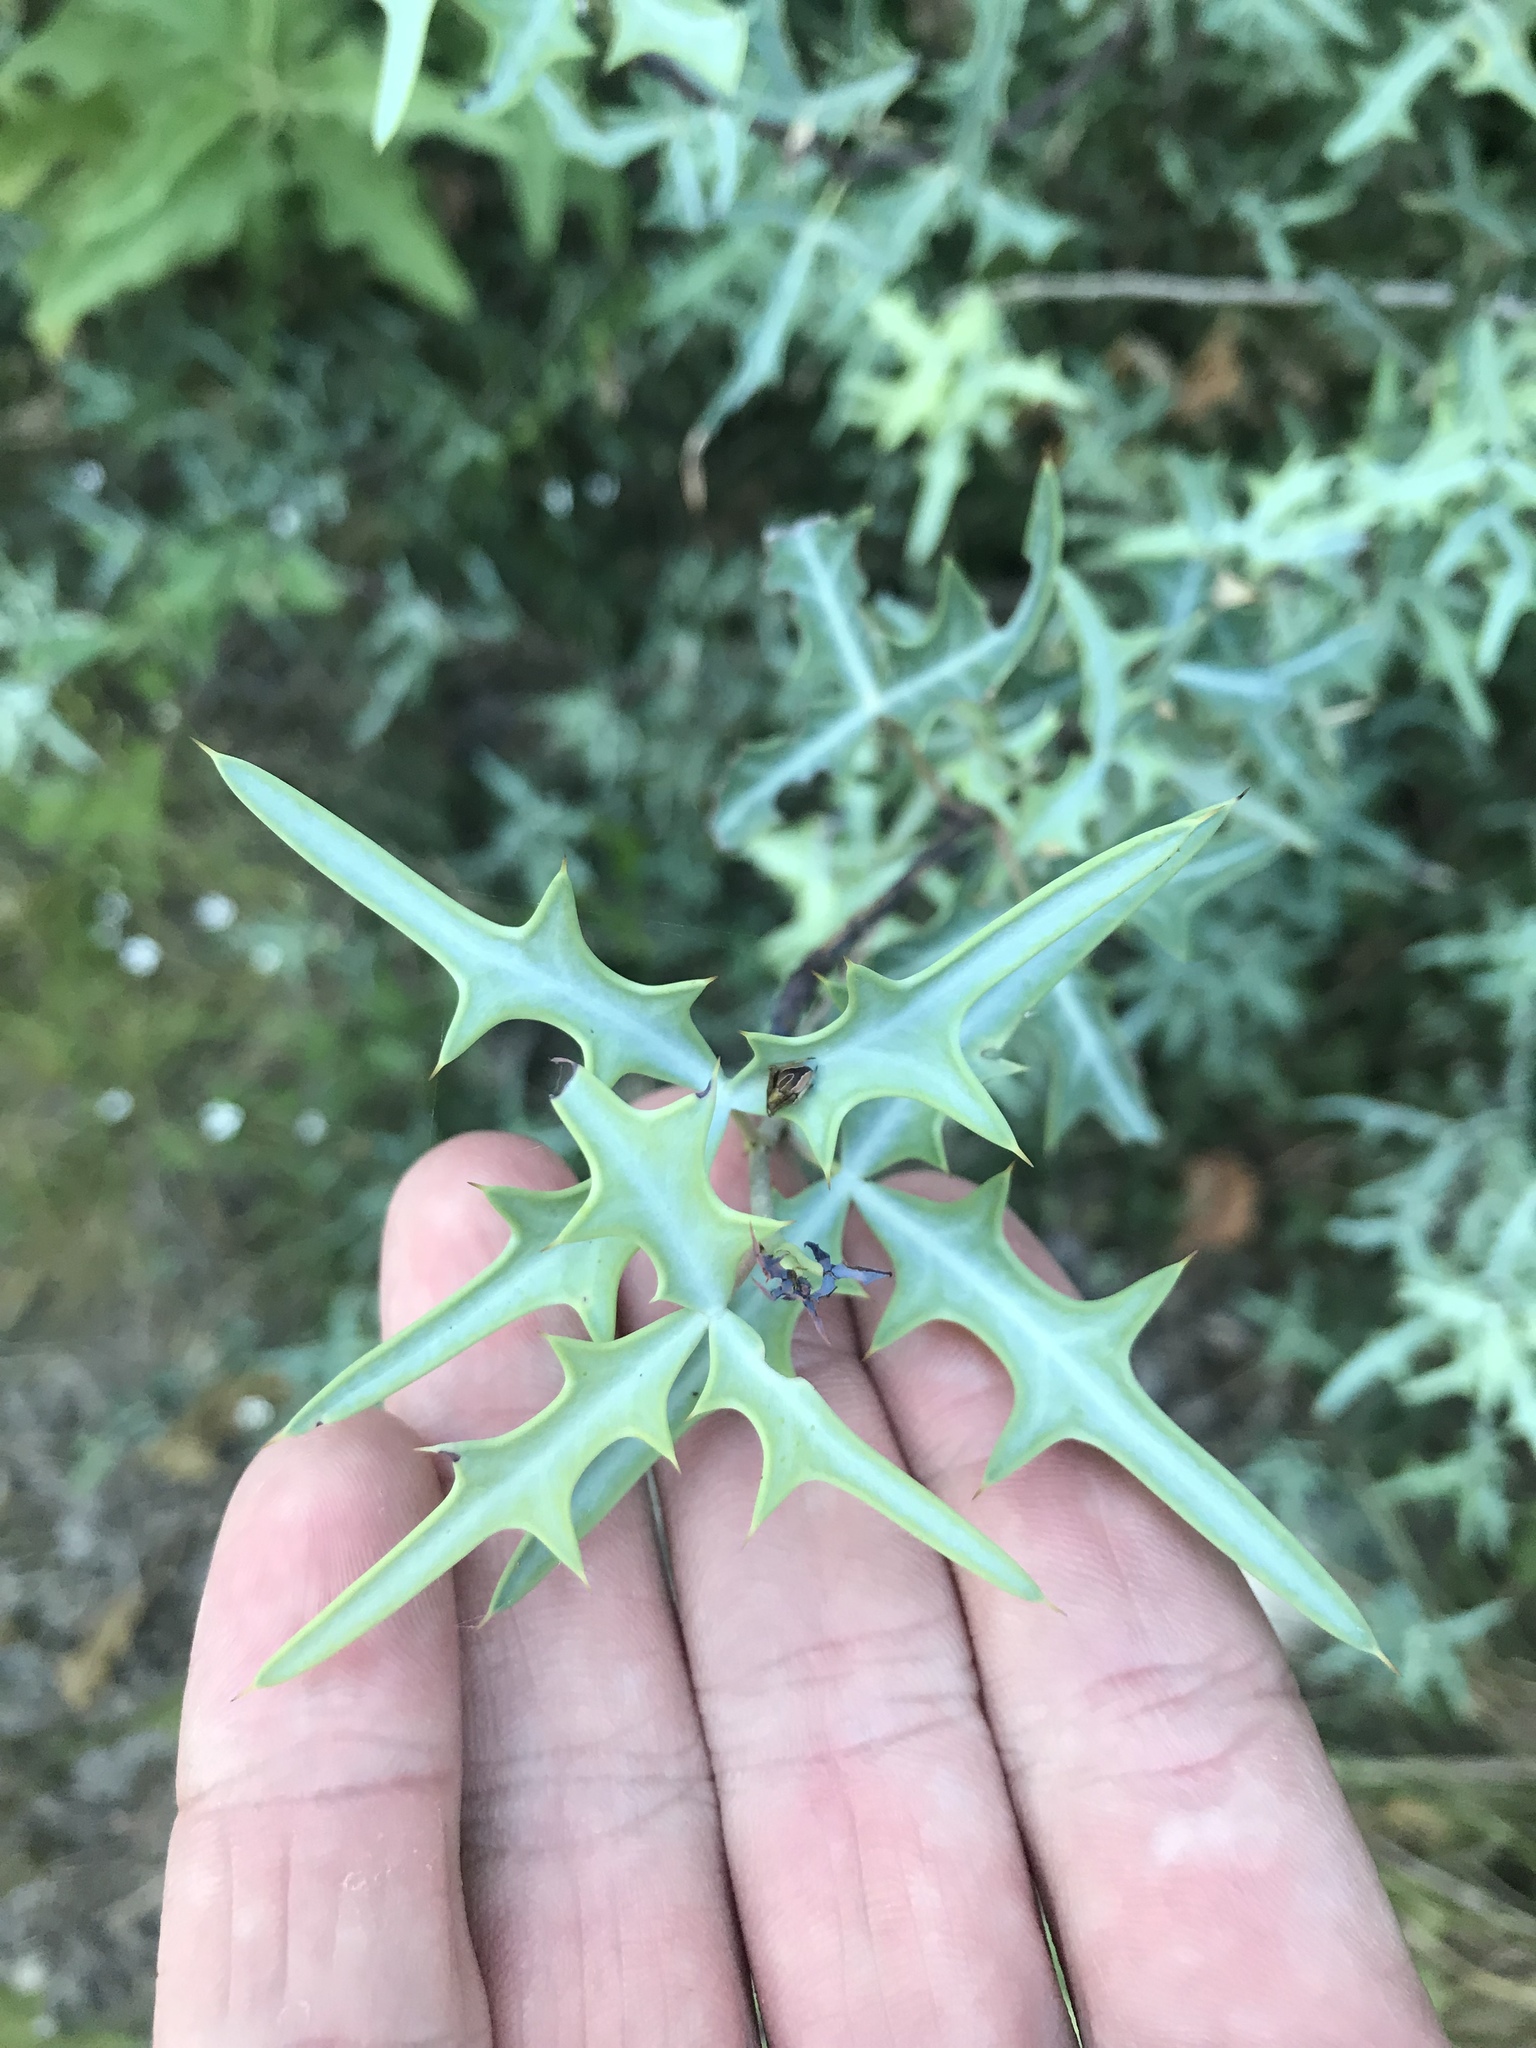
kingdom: Plantae
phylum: Tracheophyta
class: Magnoliopsida
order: Ranunculales
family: Berberidaceae
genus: Alloberberis
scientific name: Alloberberis trifoliolata
